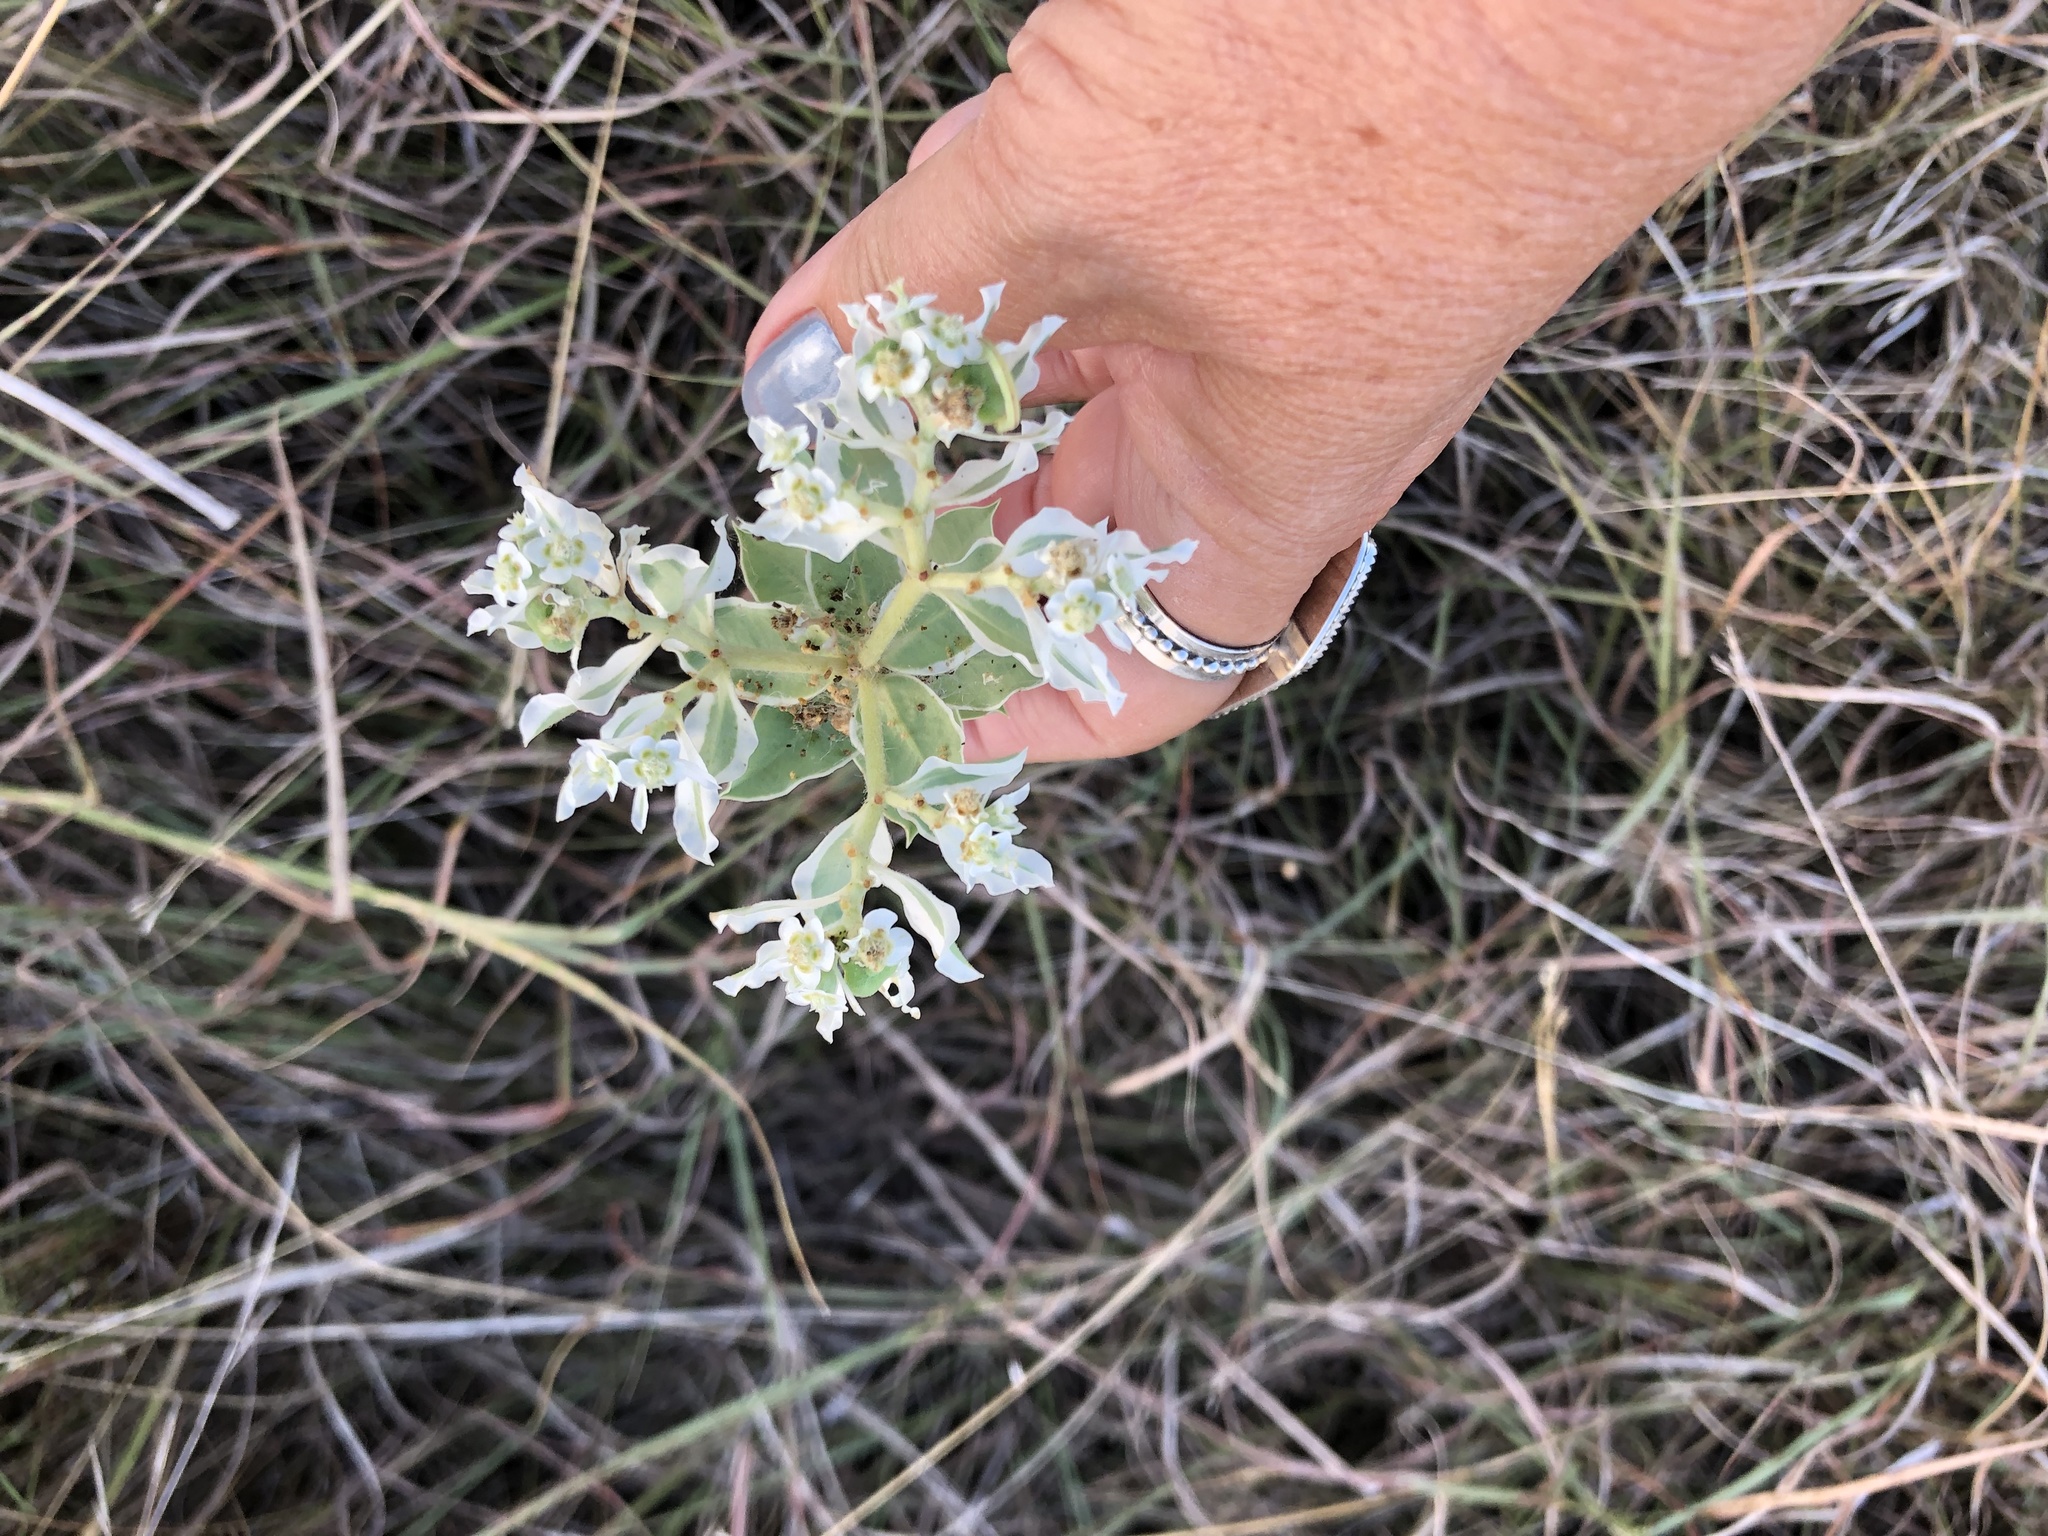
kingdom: Plantae
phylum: Tracheophyta
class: Magnoliopsida
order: Malpighiales
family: Euphorbiaceae
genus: Euphorbia
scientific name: Euphorbia marginata
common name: Ghostweed
